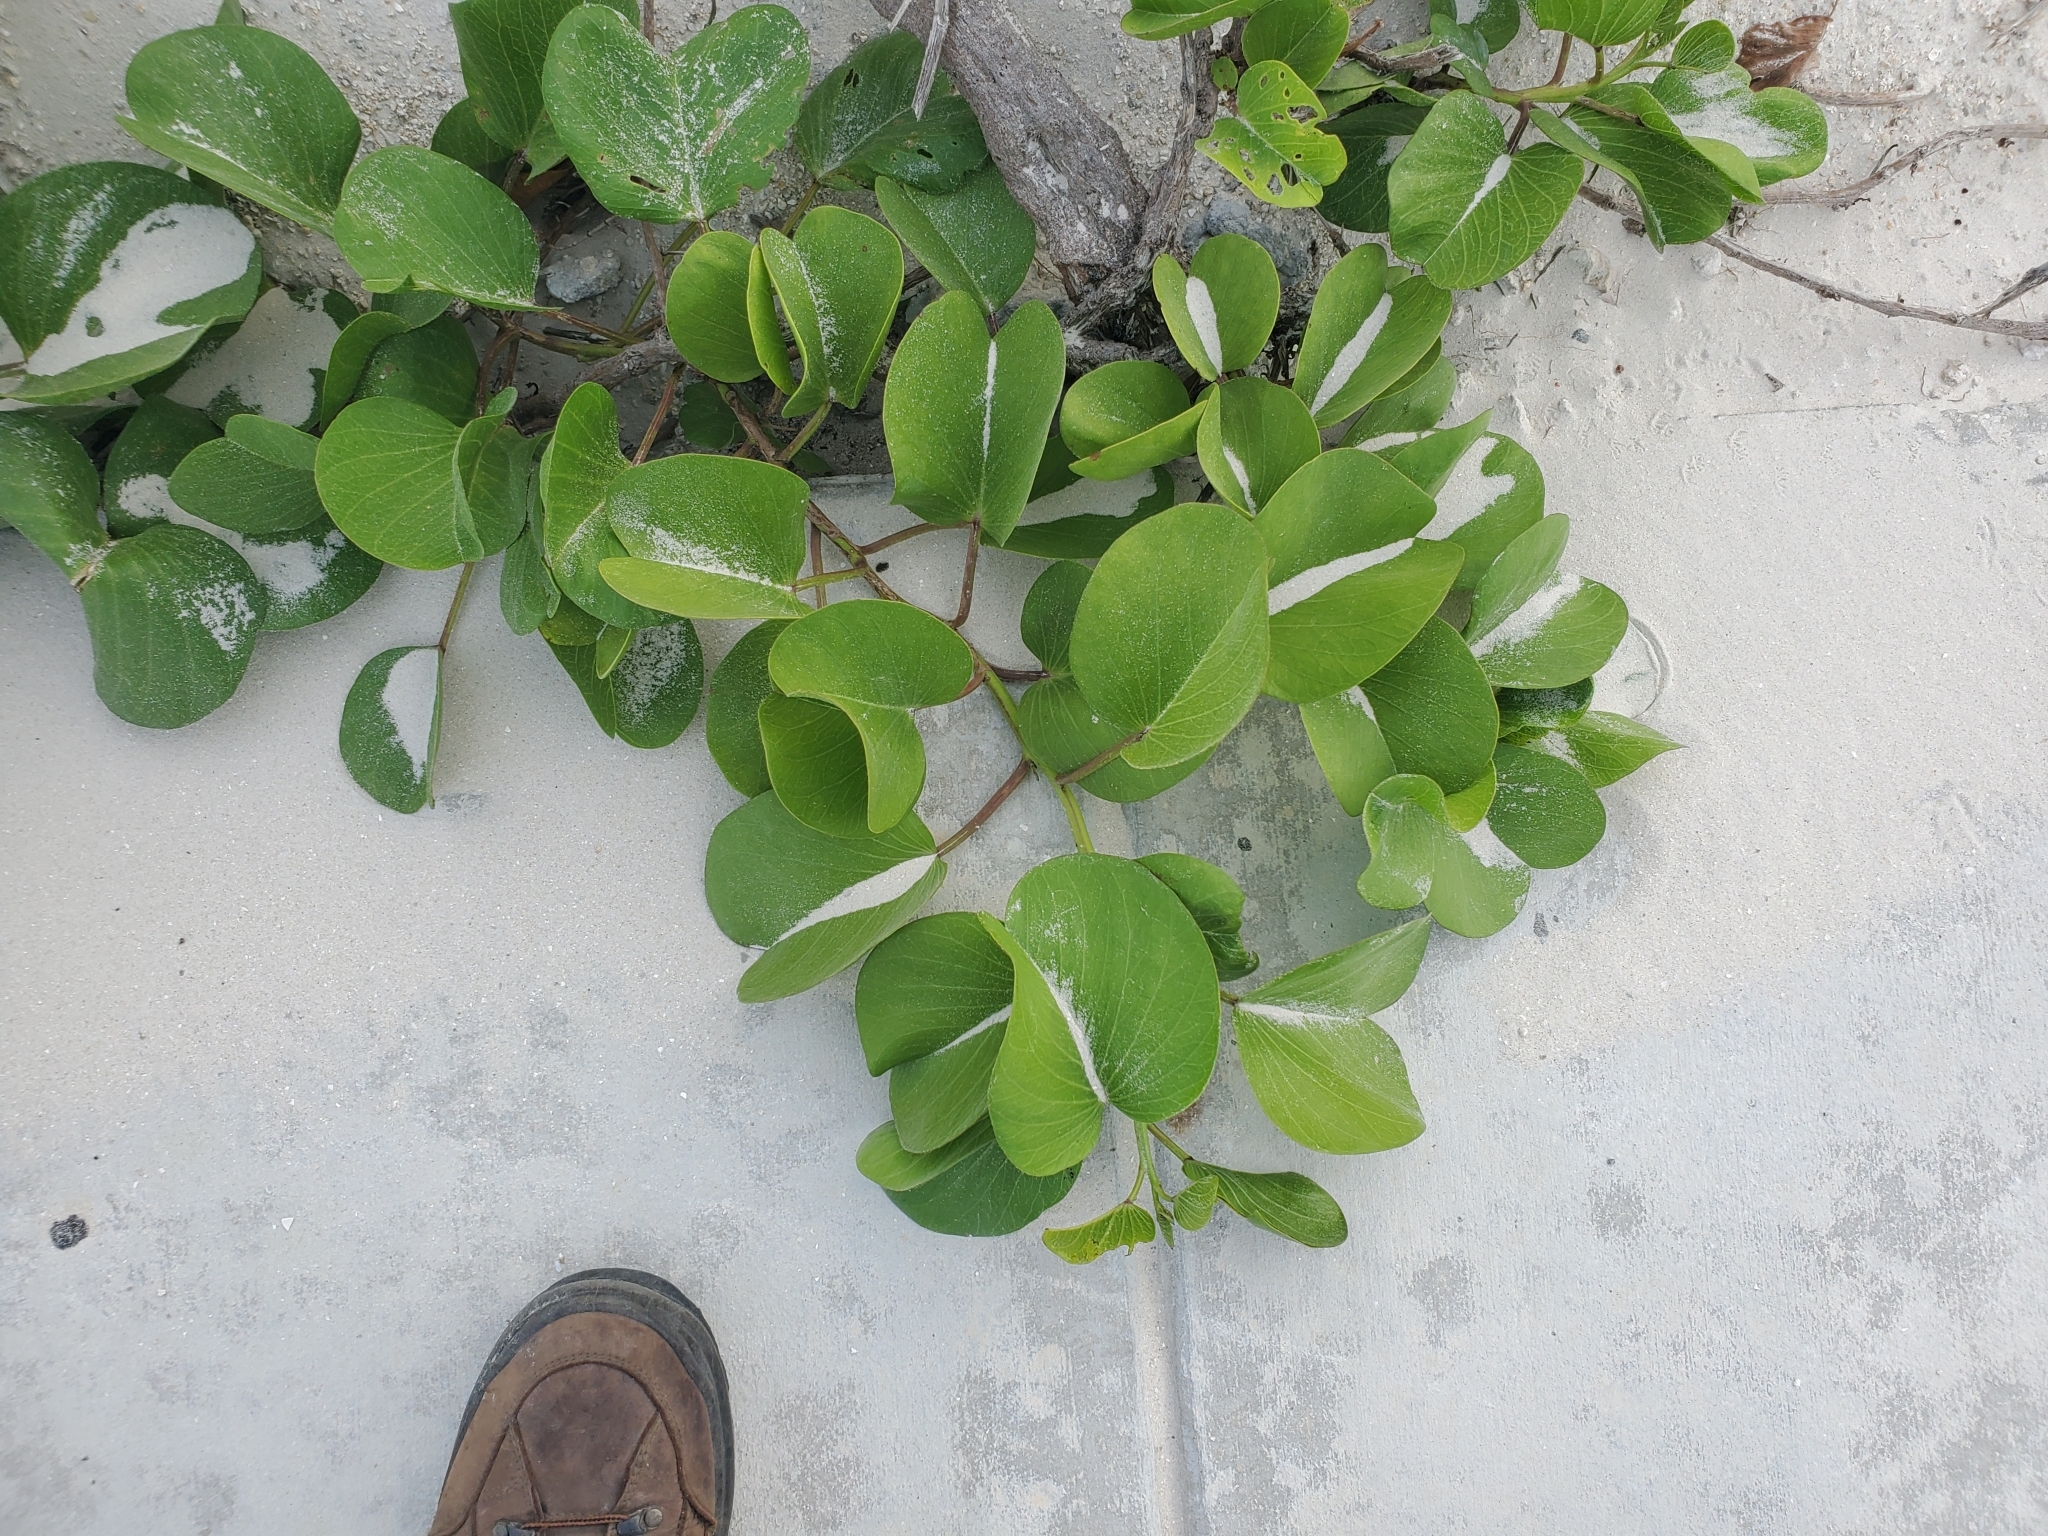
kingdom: Plantae
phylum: Tracheophyta
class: Magnoliopsida
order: Solanales
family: Convolvulaceae
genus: Ipomoea
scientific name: Ipomoea pes-caprae
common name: Beach morning glory
